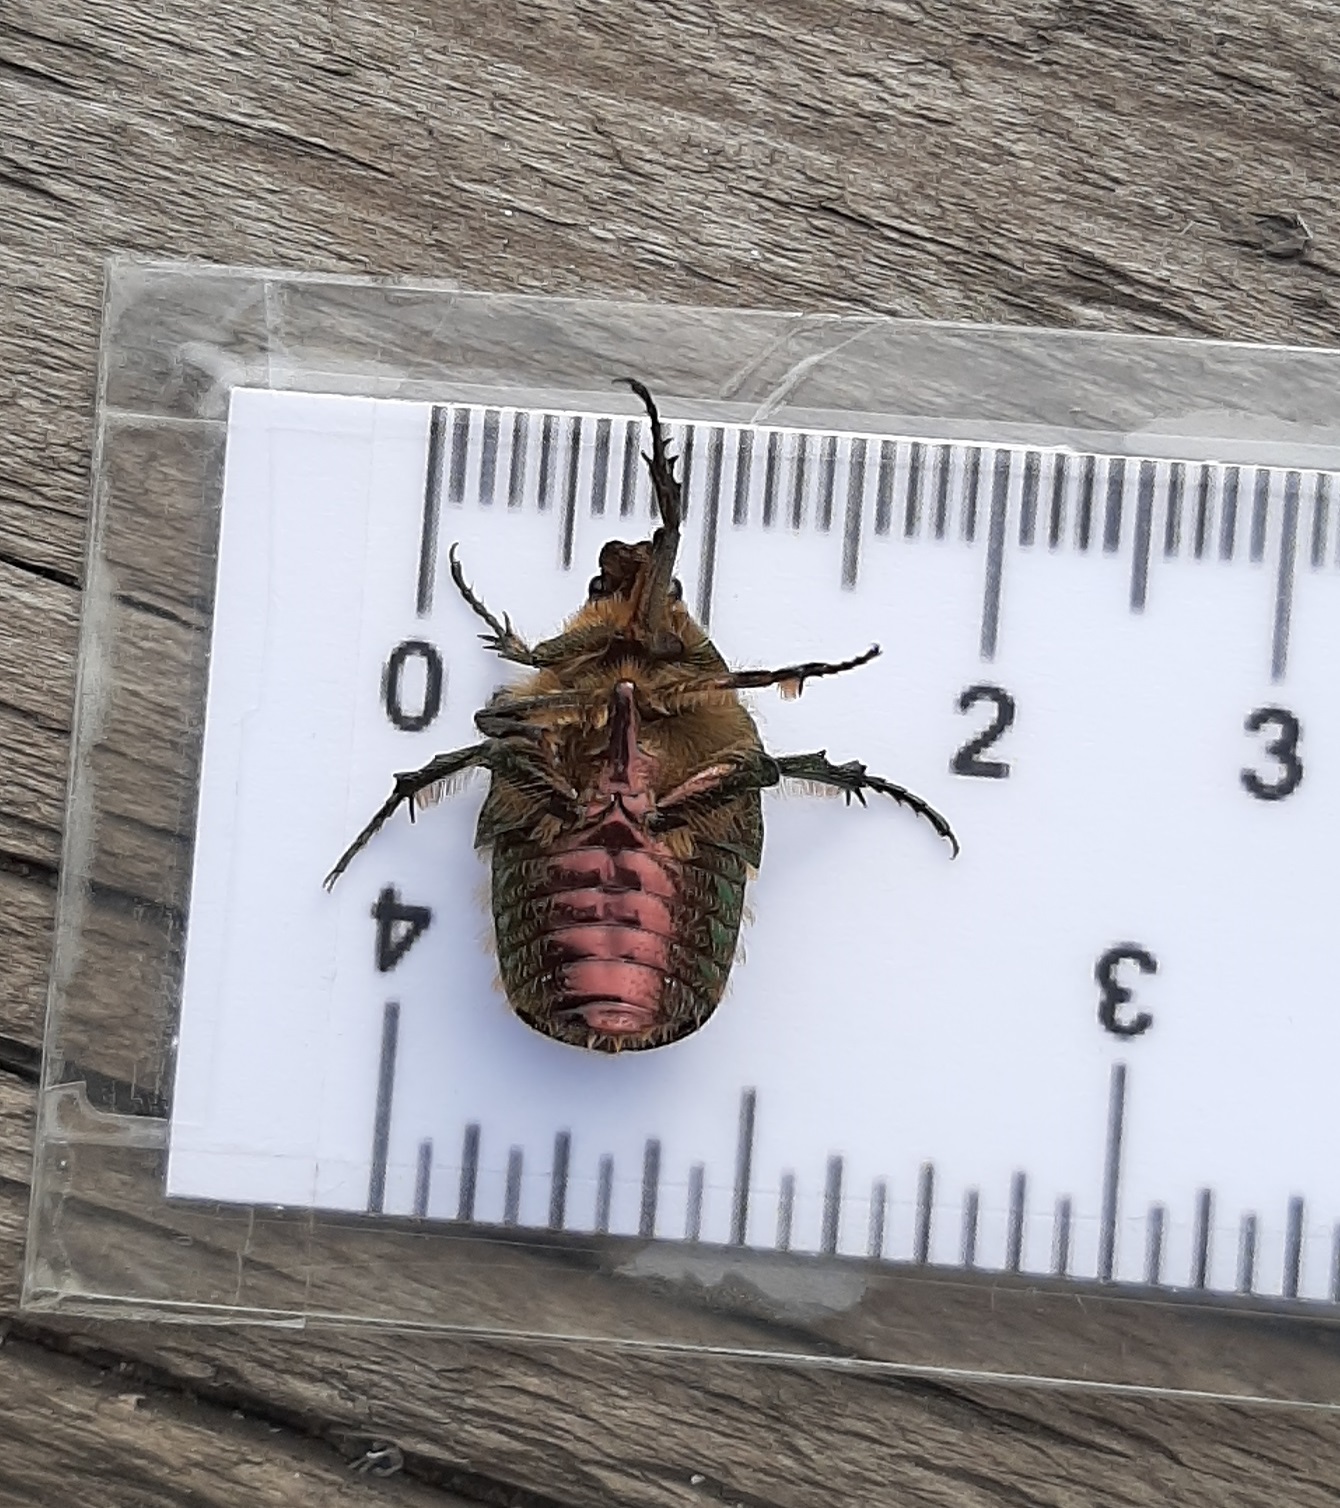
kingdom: Animalia
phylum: Arthropoda
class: Insecta
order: Coleoptera
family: Scarabaeidae
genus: Cetonia
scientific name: Cetonia aurata
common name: Rose chafer
